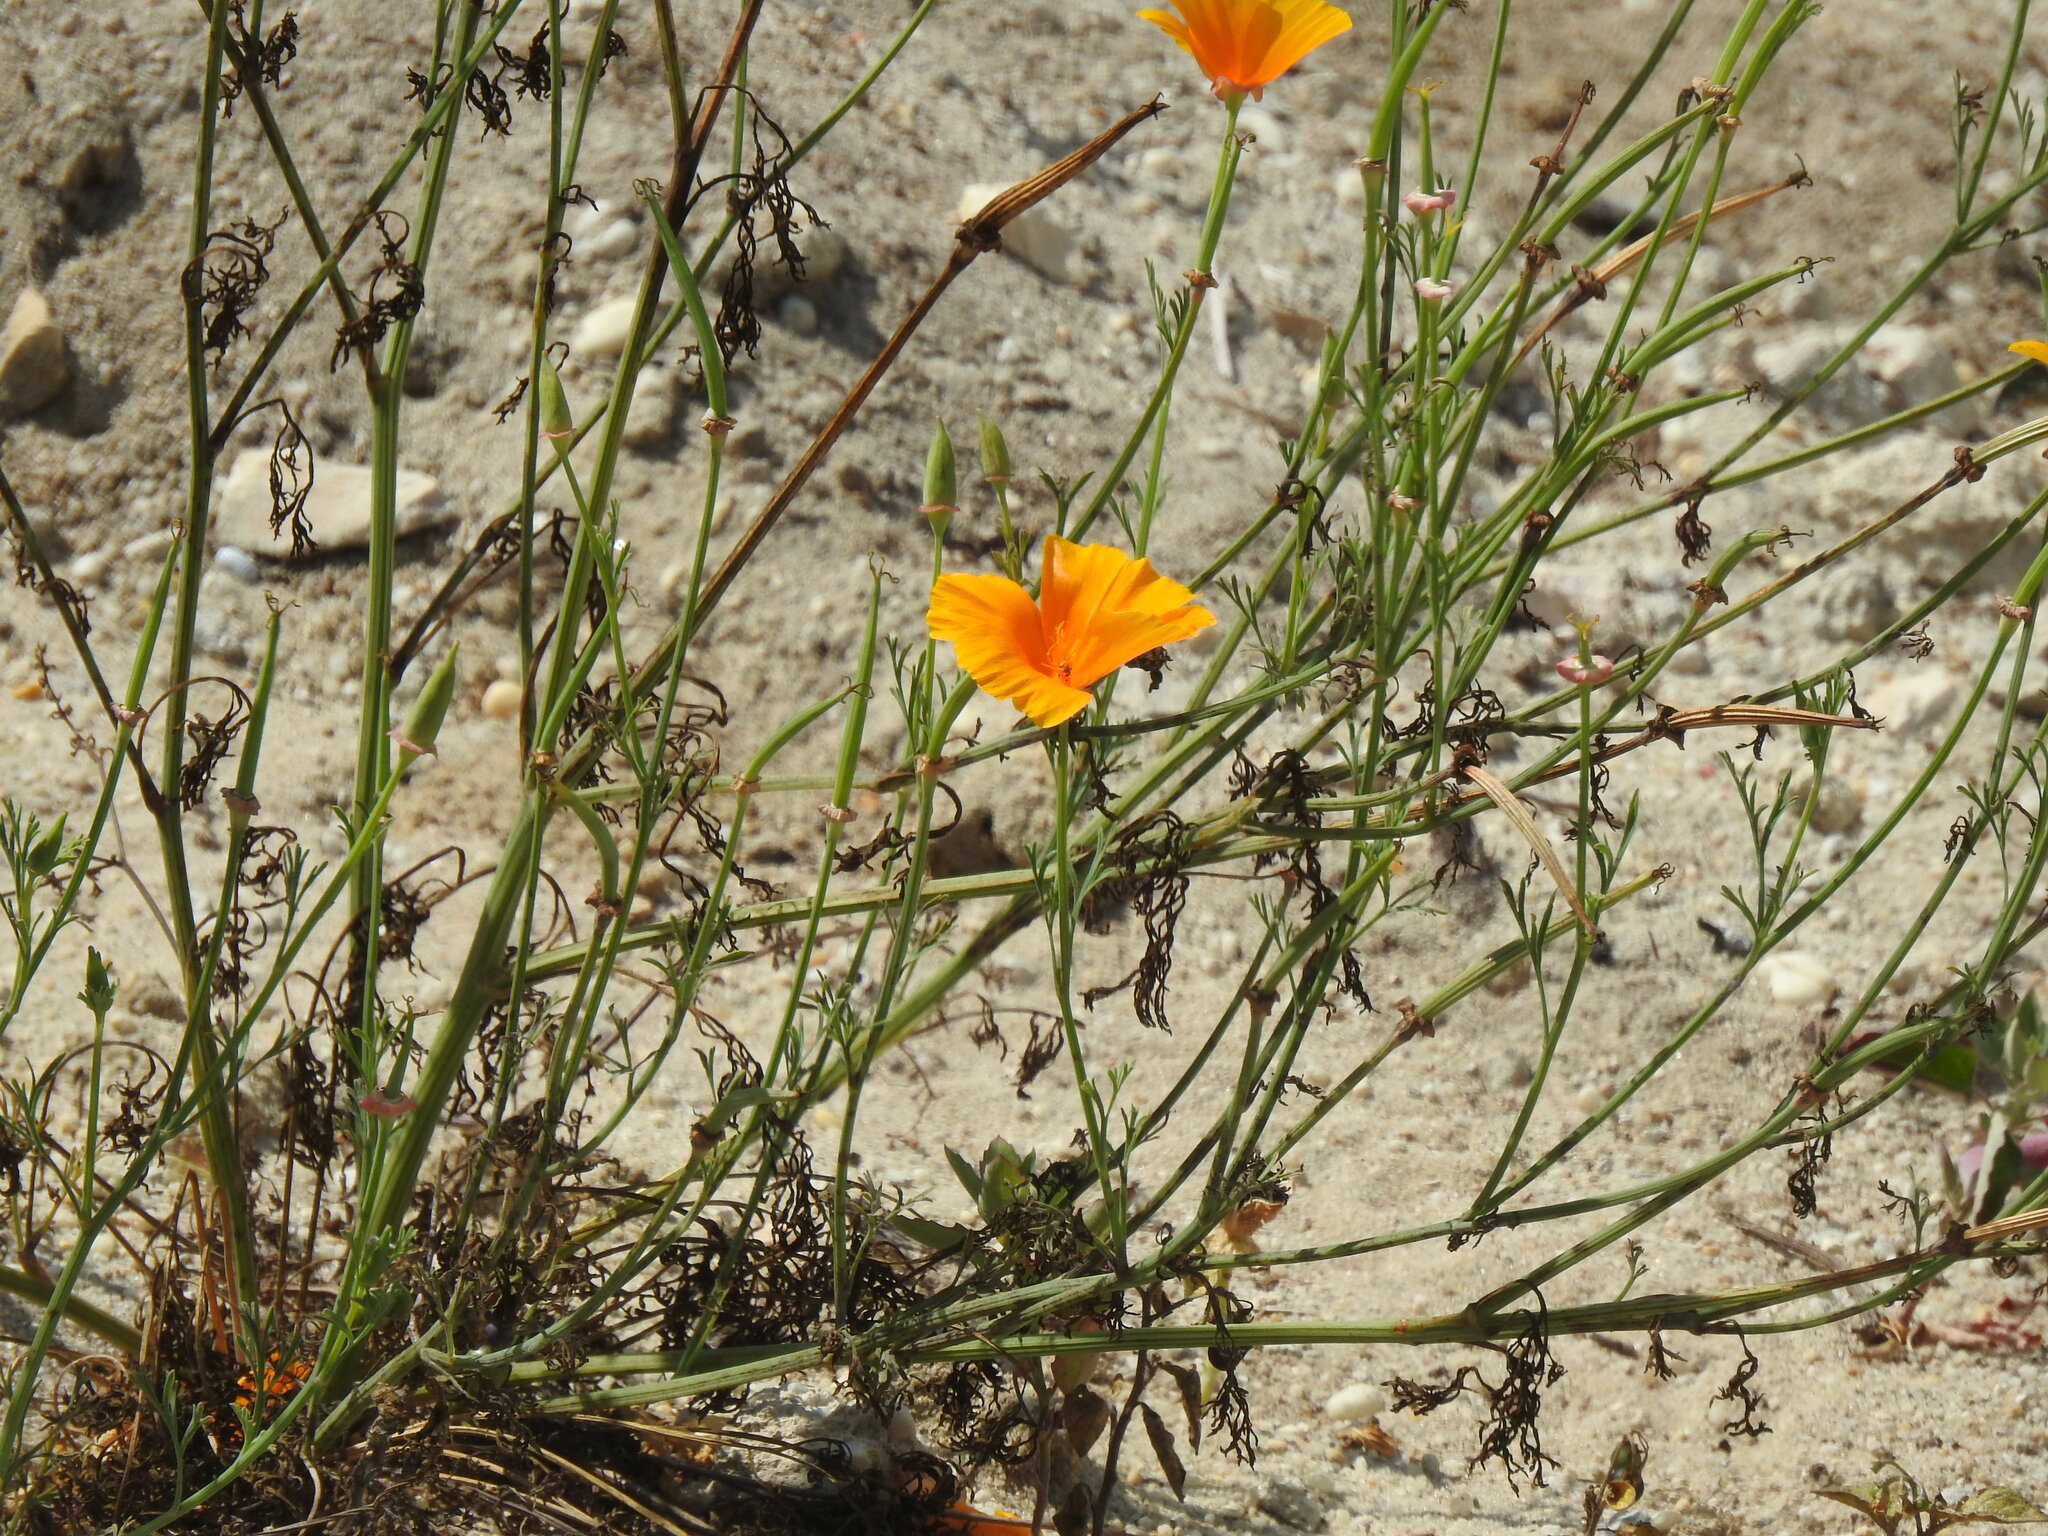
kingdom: Plantae
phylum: Tracheophyta
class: Magnoliopsida
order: Ranunculales
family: Papaveraceae
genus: Eschscholzia
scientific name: Eschscholzia californica
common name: California poppy
